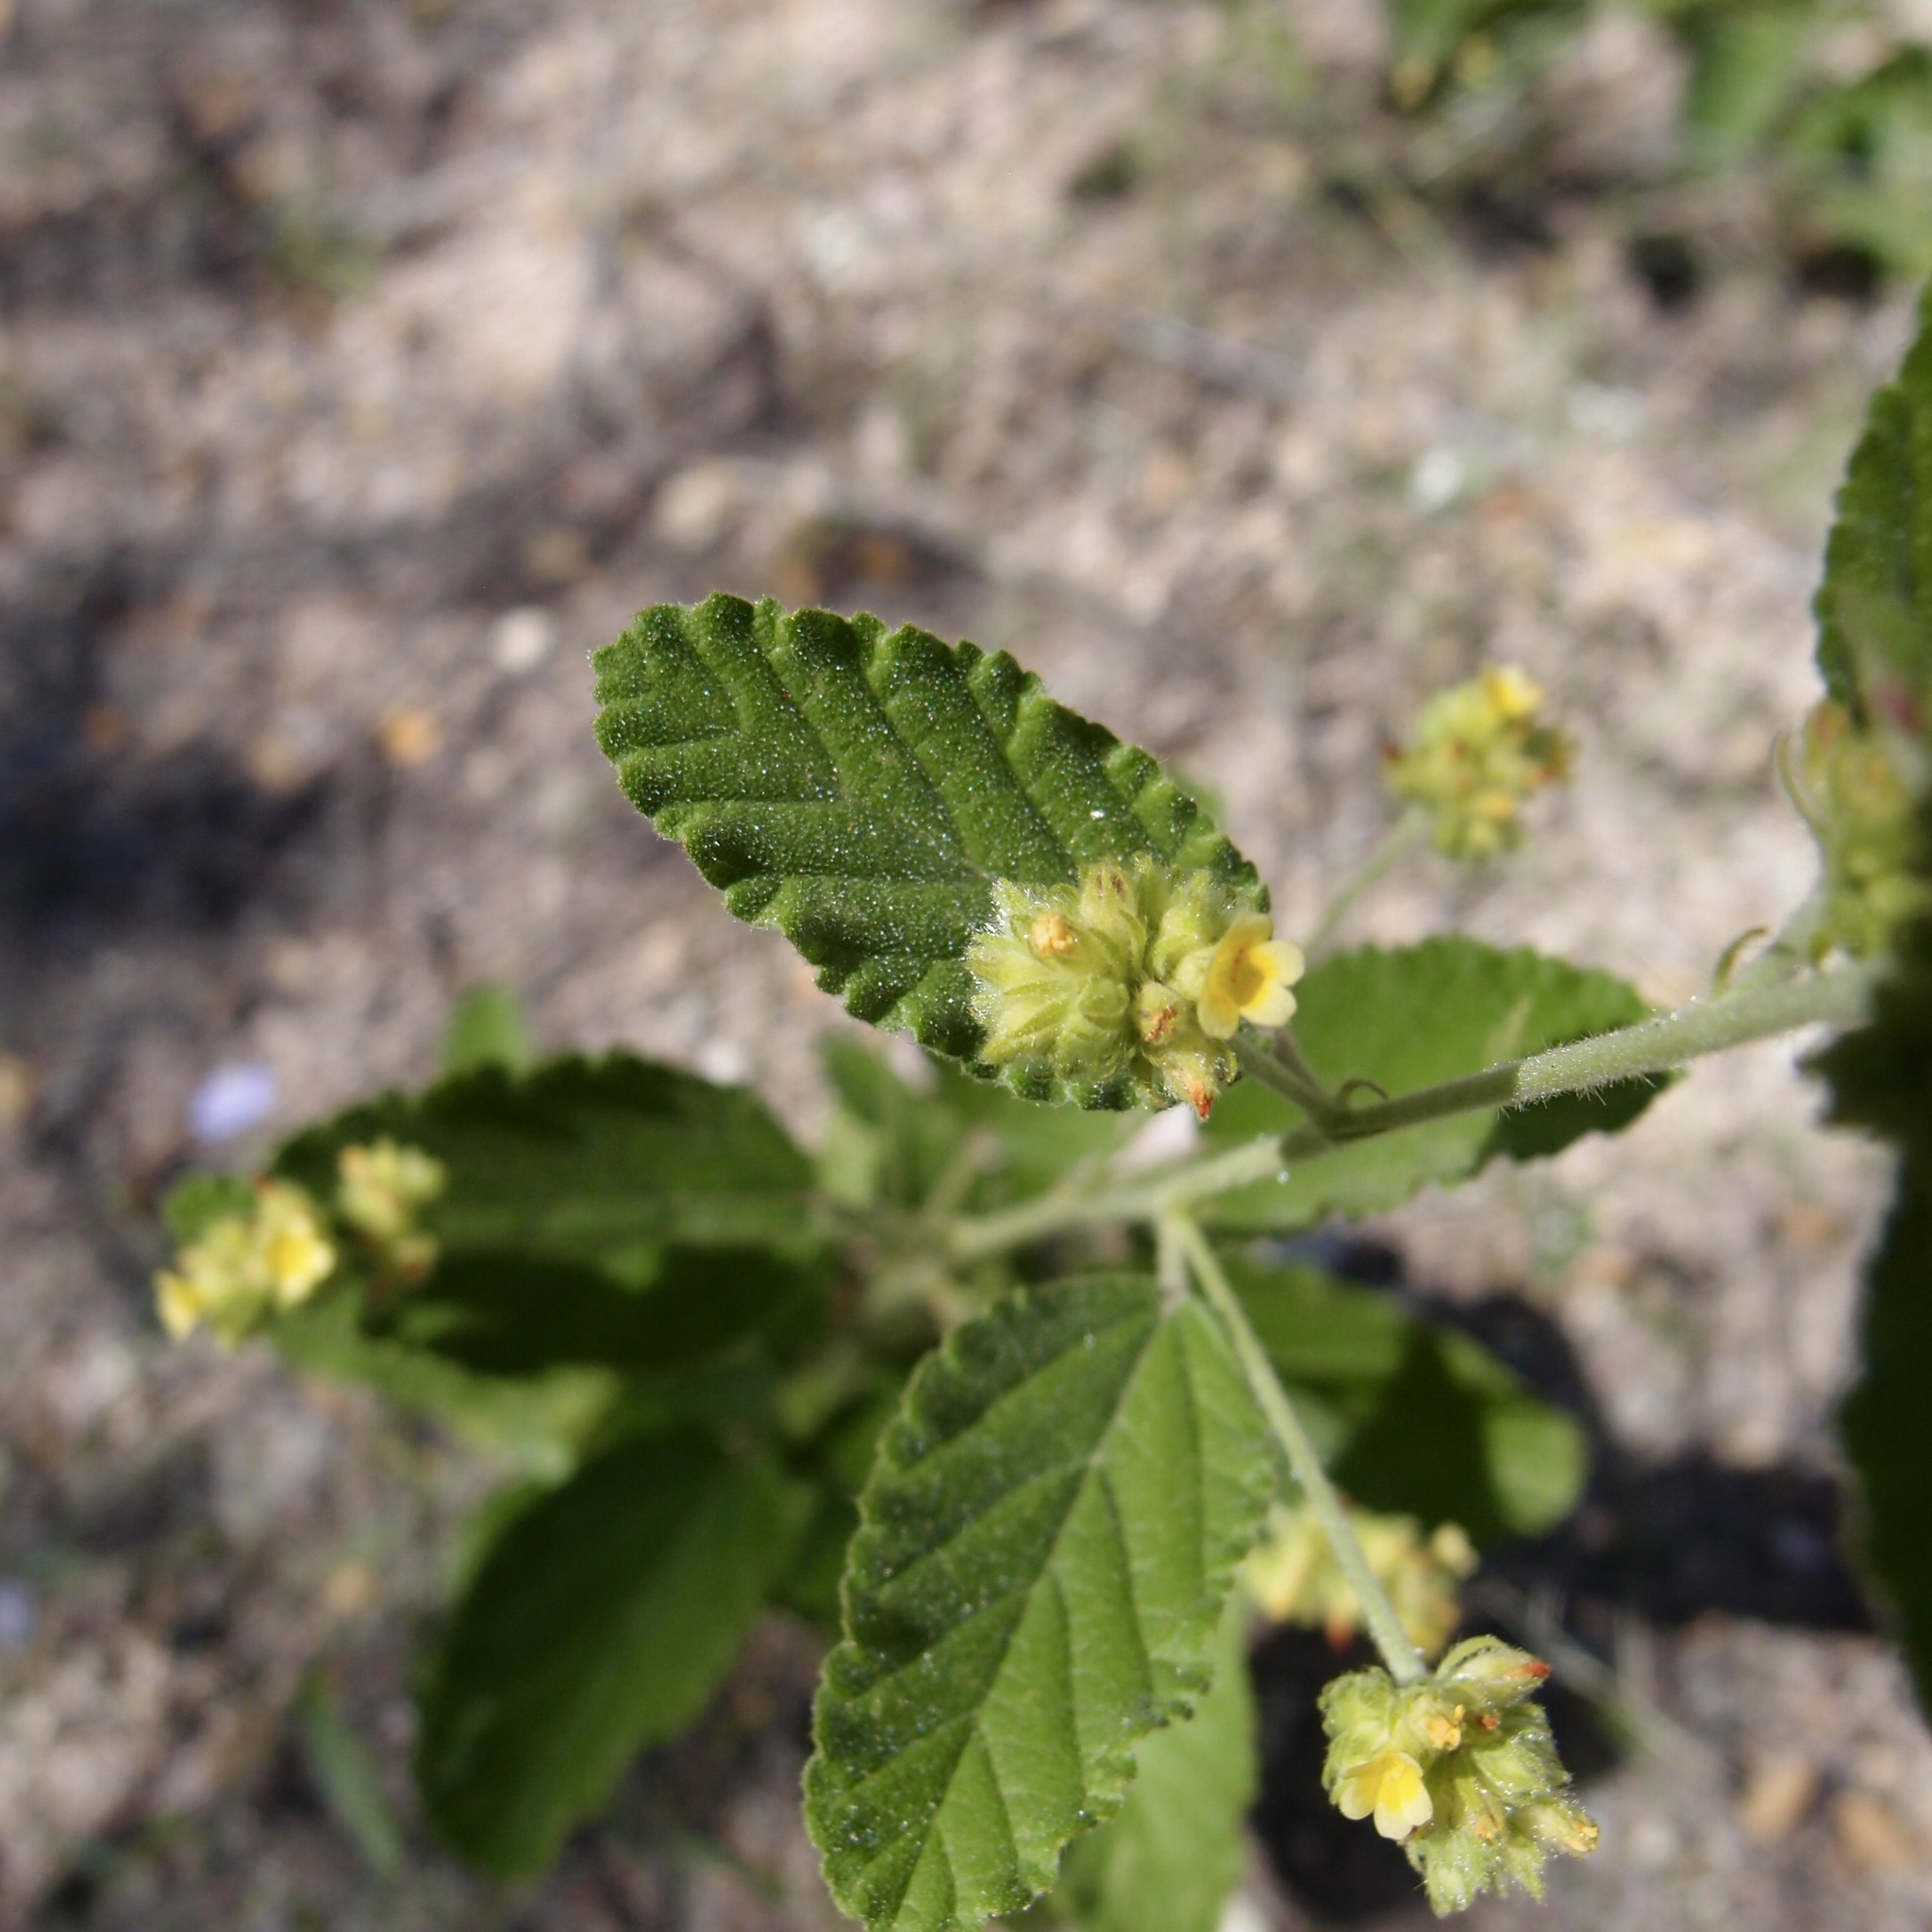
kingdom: Plantae
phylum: Tracheophyta
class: Magnoliopsida
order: Malvales
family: Malvaceae
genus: Waltheria
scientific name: Waltheria indica
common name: Leather-coat
